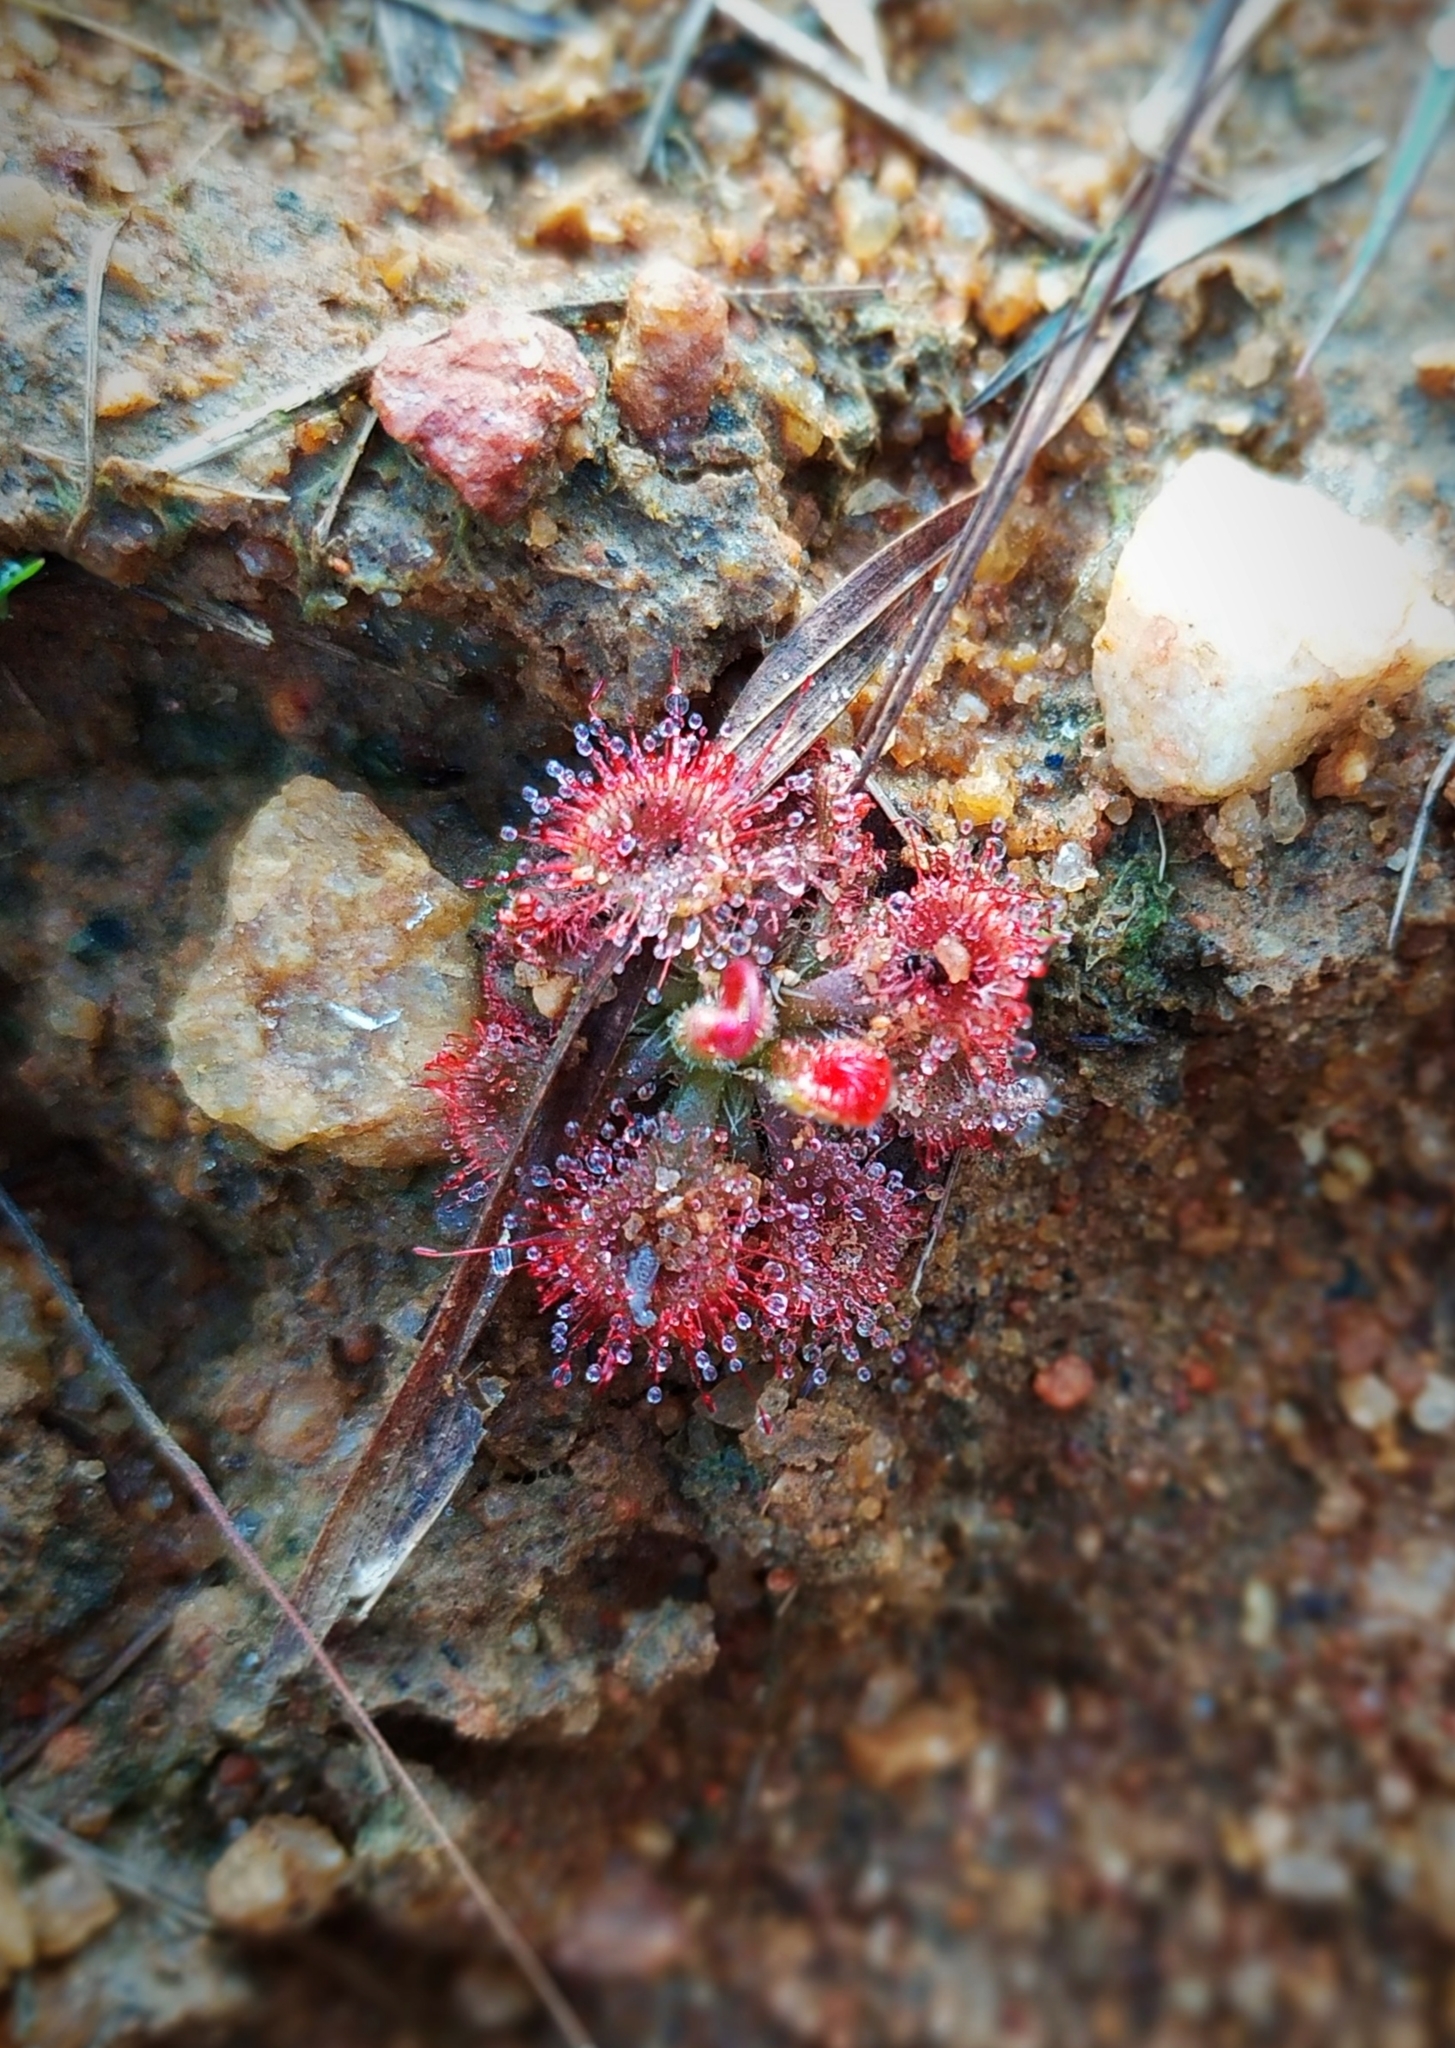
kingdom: Plantae
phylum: Tracheophyta
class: Magnoliopsida
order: Caryophyllales
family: Droseraceae
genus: Drosera
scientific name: Drosera spatulata
